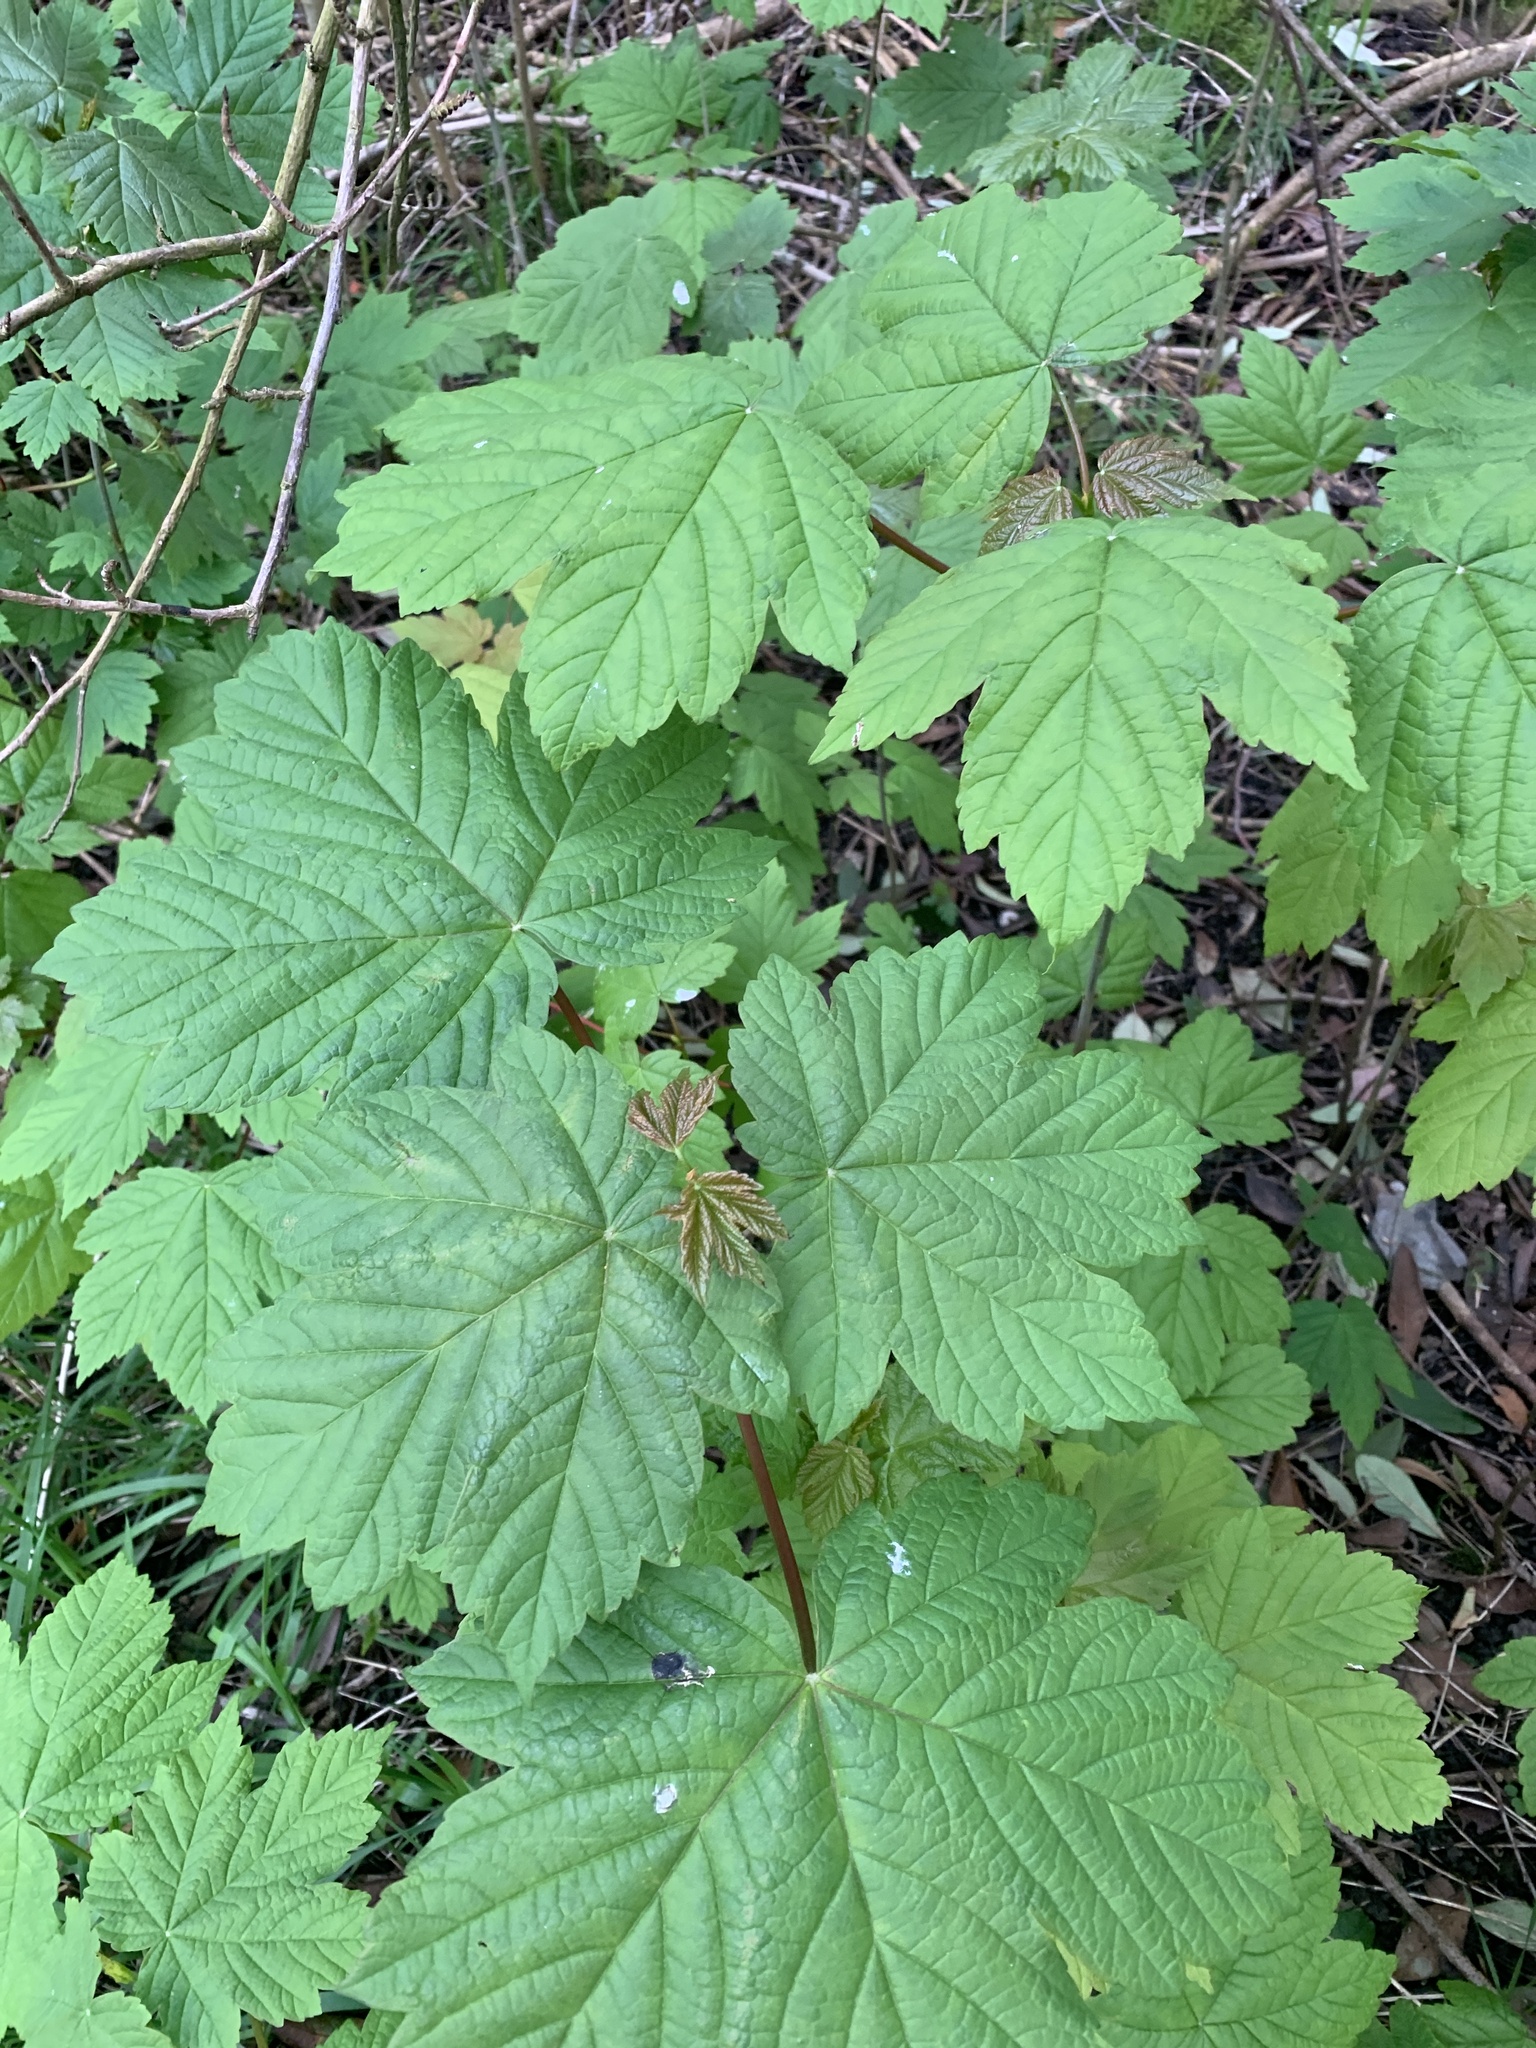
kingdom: Plantae
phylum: Tracheophyta
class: Magnoliopsida
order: Sapindales
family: Sapindaceae
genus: Acer
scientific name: Acer pseudoplatanus
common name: Sycamore
